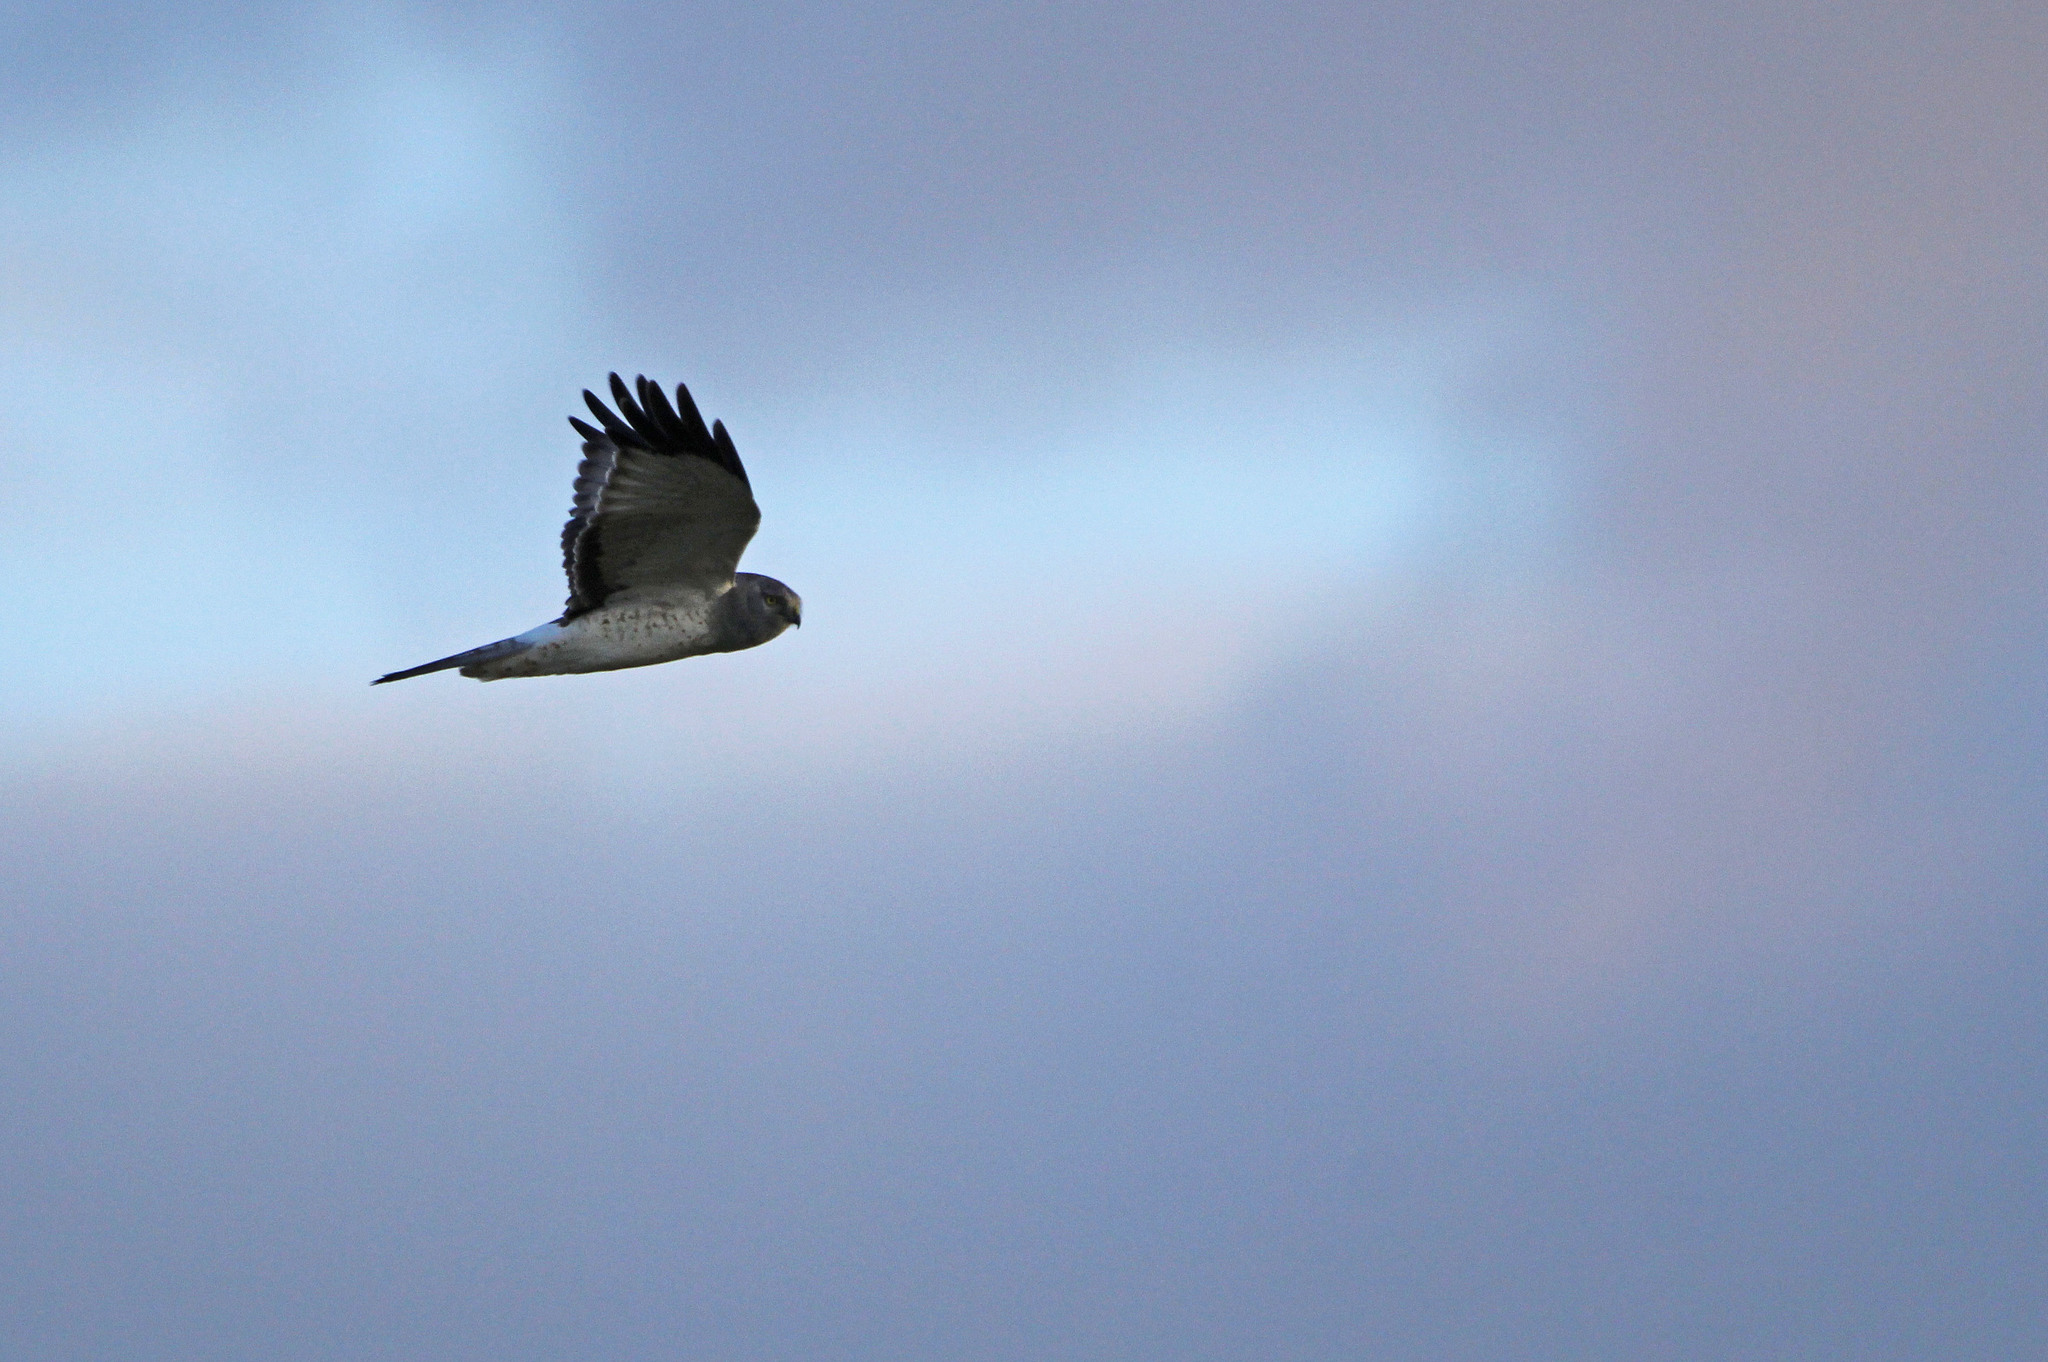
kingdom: Animalia
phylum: Chordata
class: Aves
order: Accipitriformes
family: Accipitridae
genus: Circus
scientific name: Circus cyaneus
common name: Hen harrier
